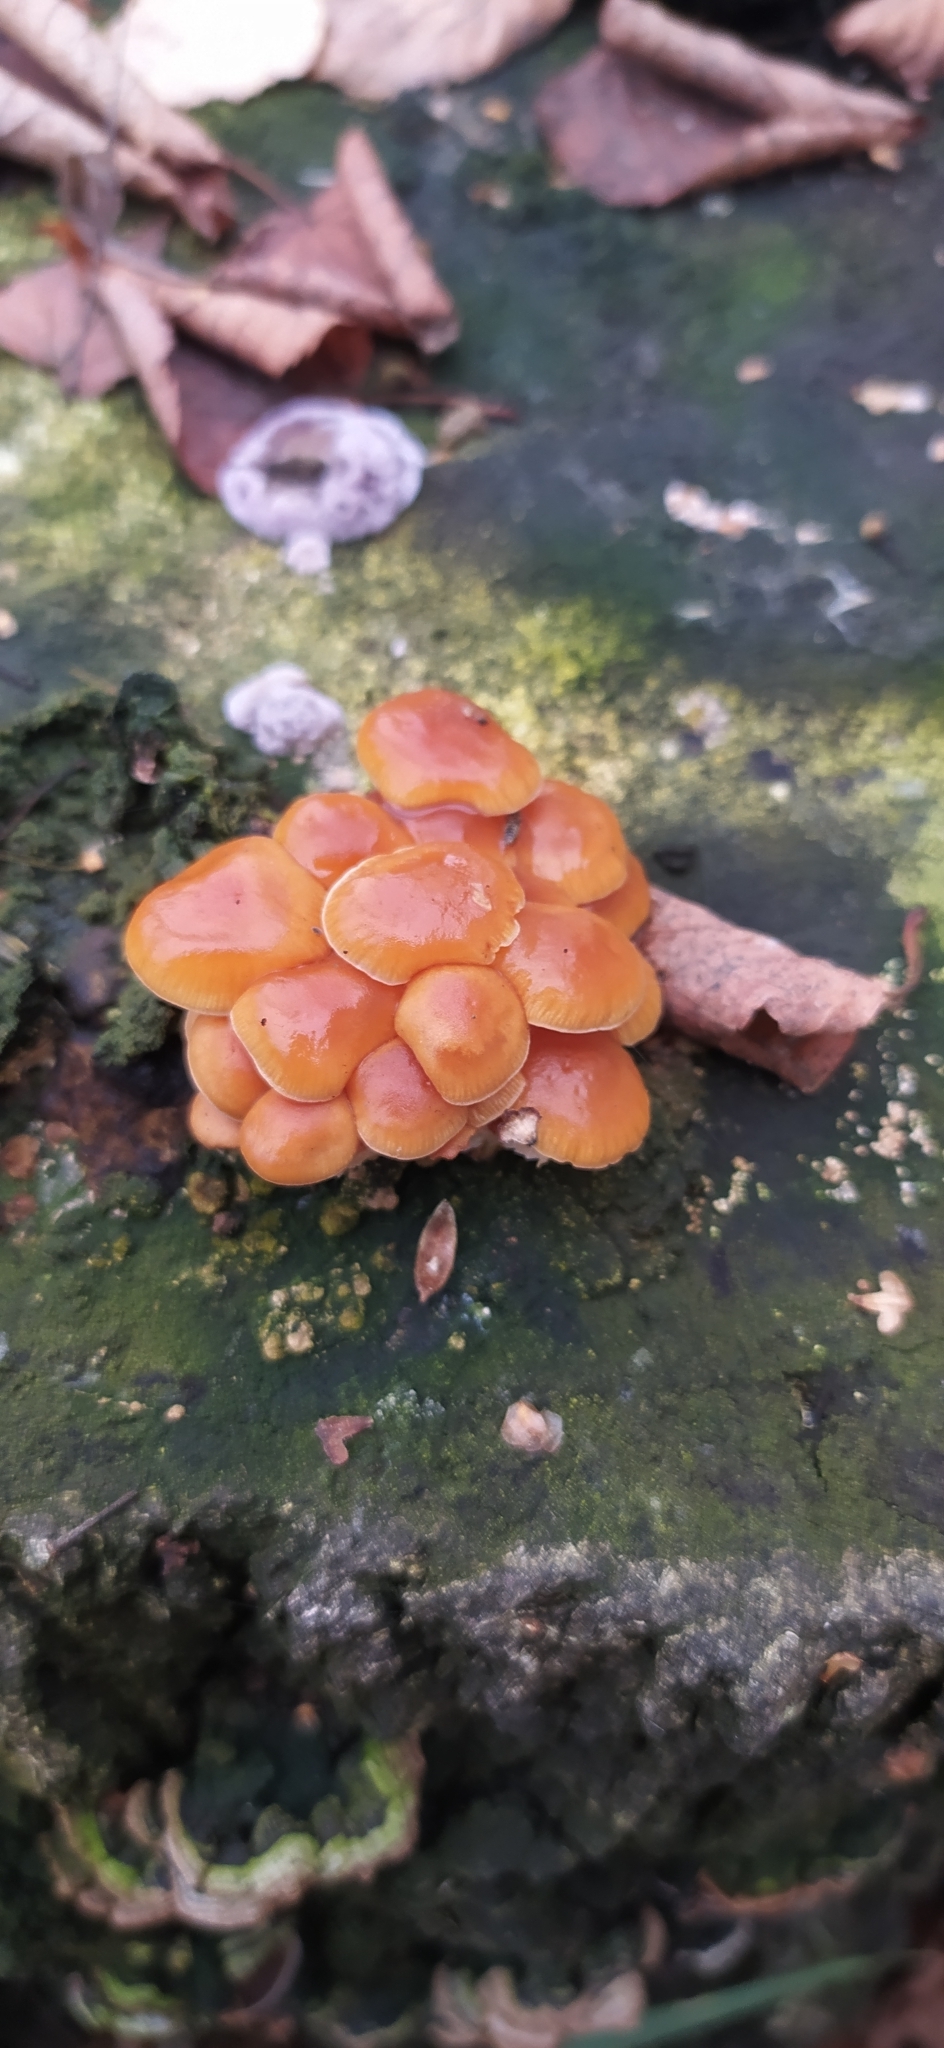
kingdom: Fungi
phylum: Basidiomycota
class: Agaricomycetes
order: Agaricales
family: Physalacriaceae
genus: Flammulina
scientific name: Flammulina
